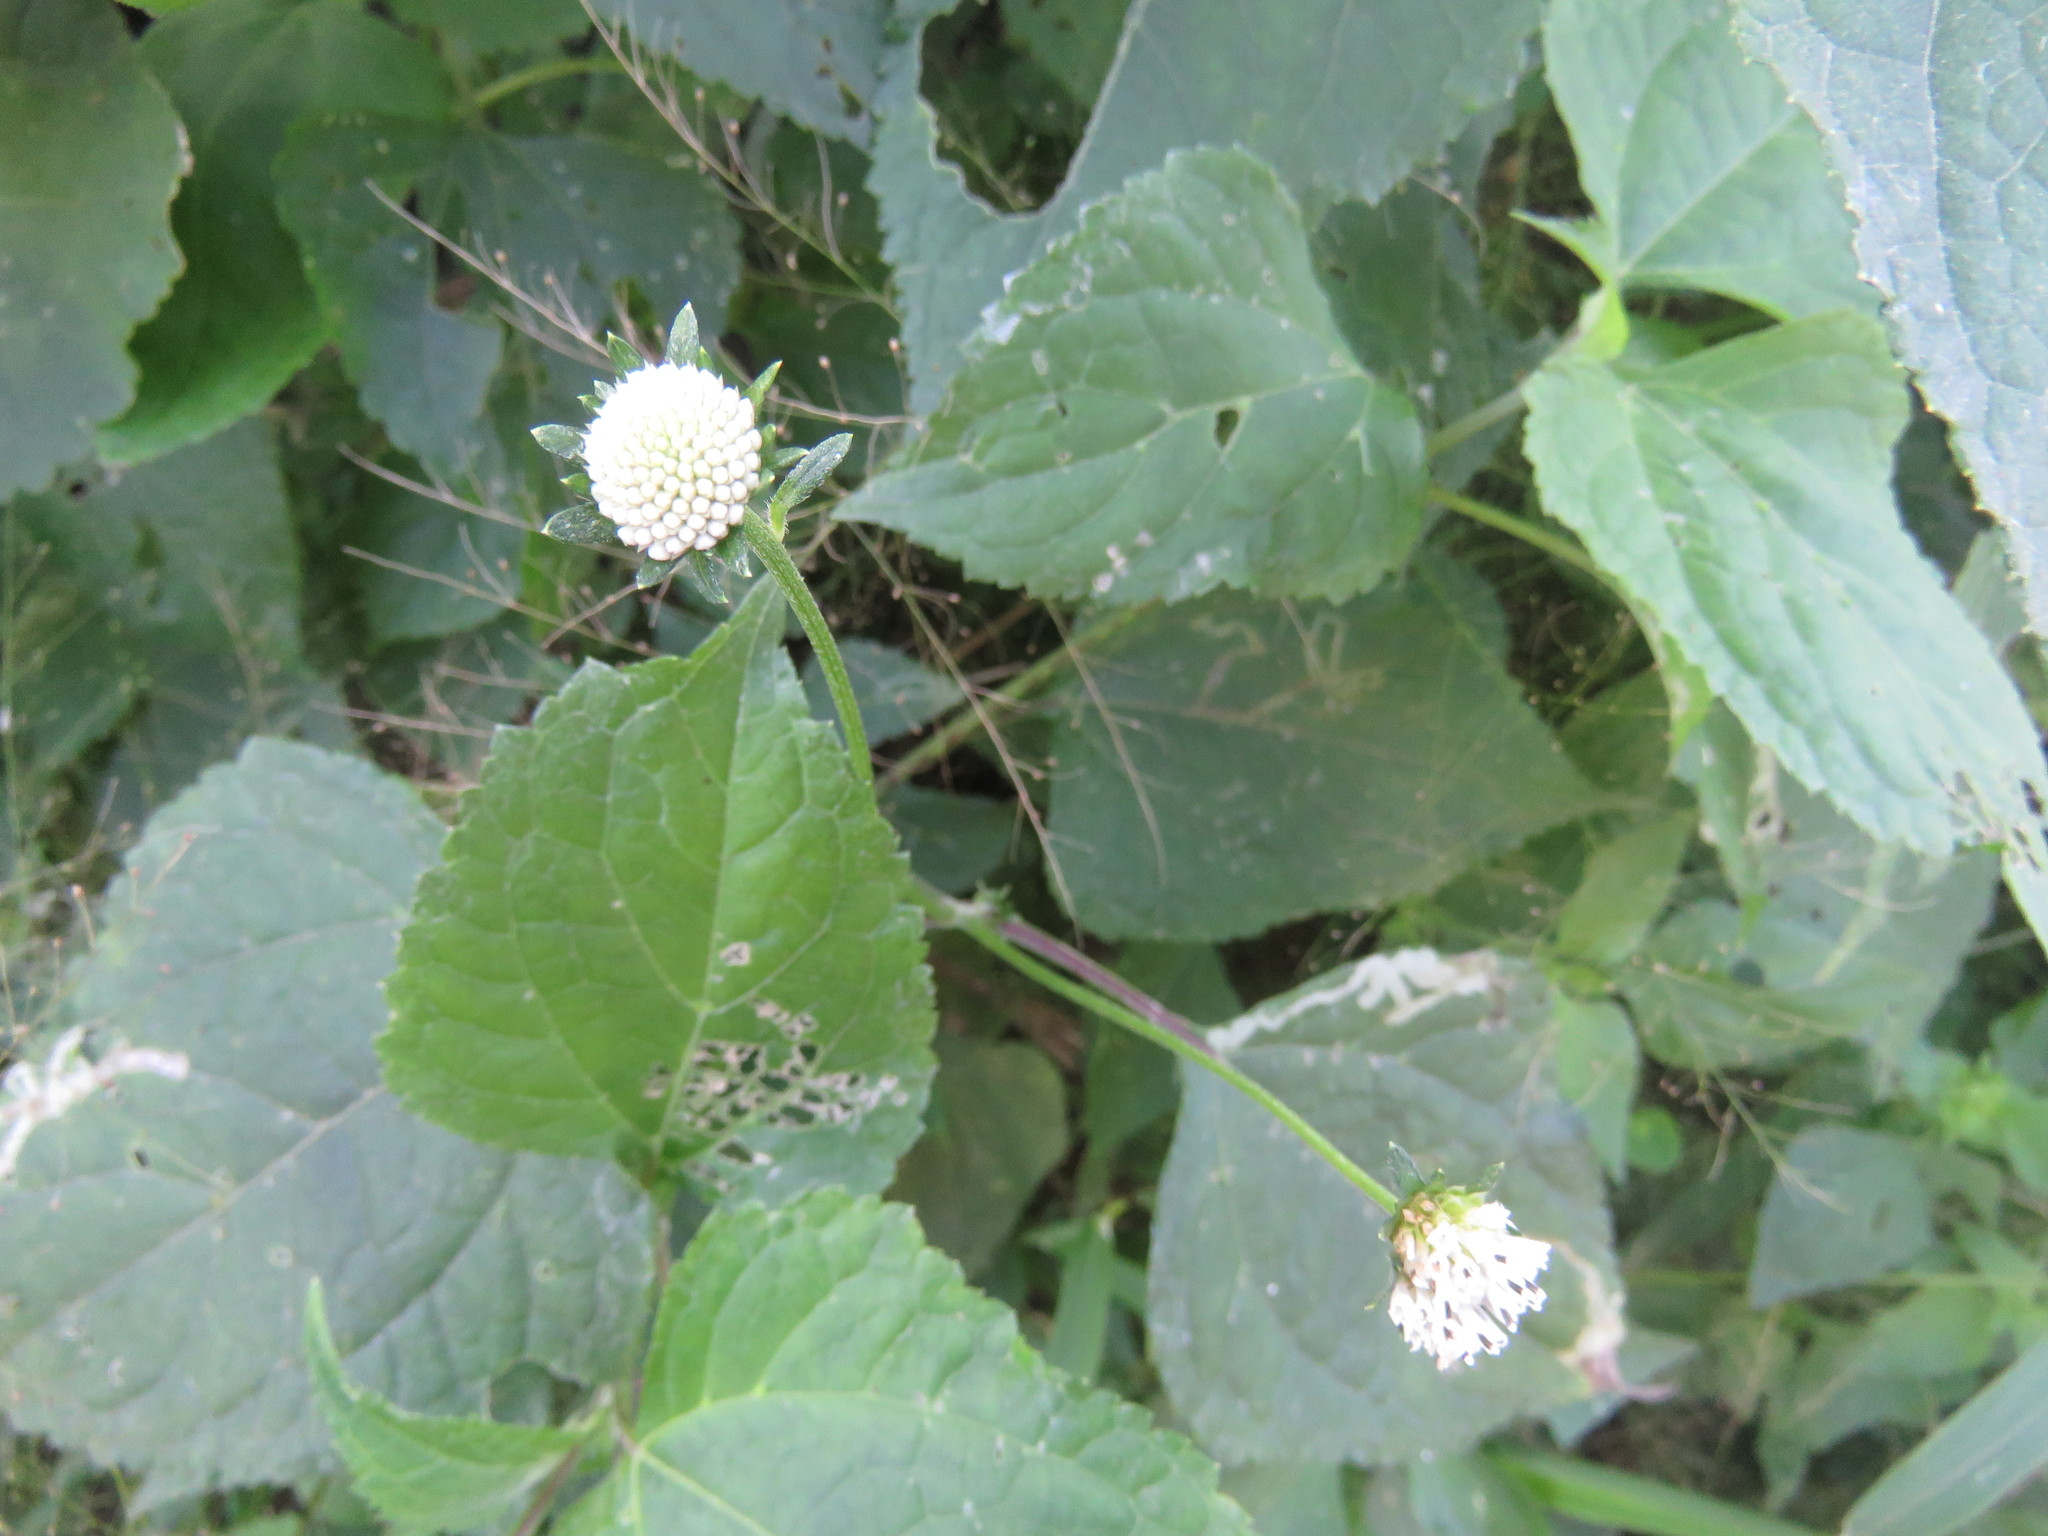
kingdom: Plantae
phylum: Tracheophyta
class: Magnoliopsida
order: Asterales
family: Asteraceae
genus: Melanthera
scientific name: Melanthera nivea
